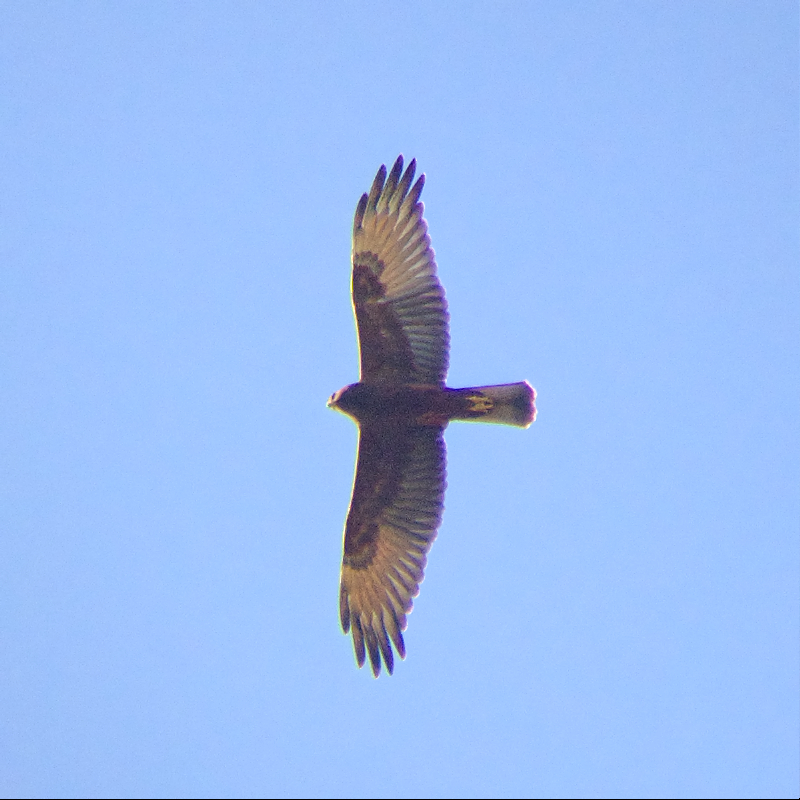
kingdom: Animalia
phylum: Chordata
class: Aves
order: Accipitriformes
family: Accipitridae
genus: Circus
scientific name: Circus approximans
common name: Swamp harrier
